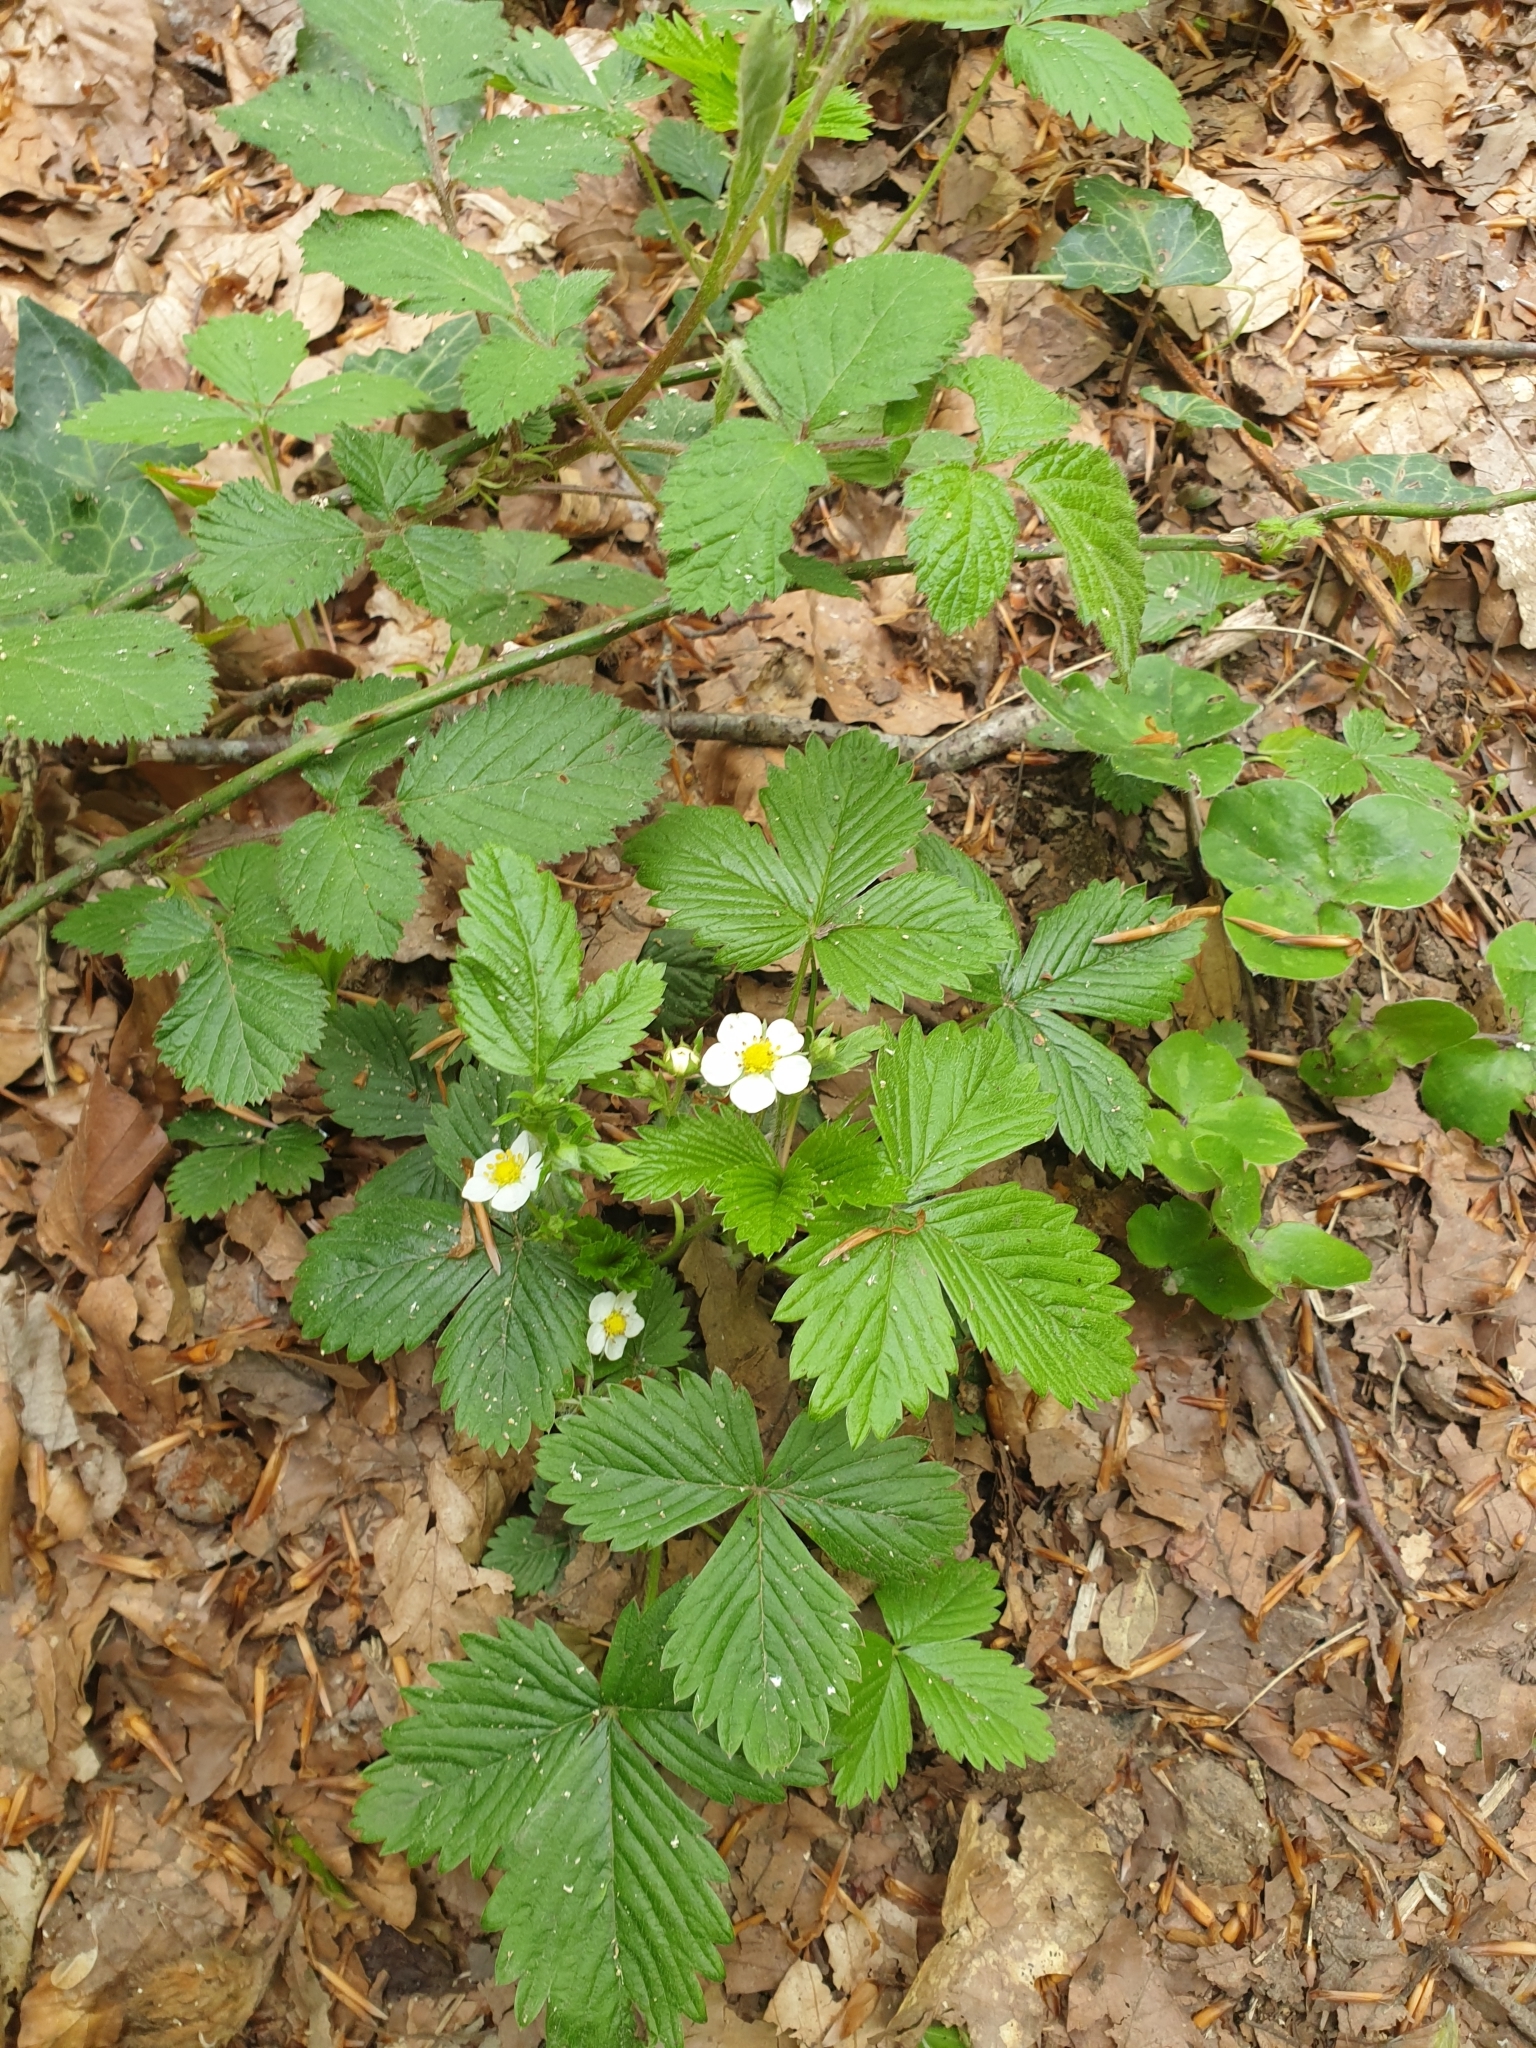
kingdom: Plantae
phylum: Tracheophyta
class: Magnoliopsida
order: Rosales
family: Rosaceae
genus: Fragaria
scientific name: Fragaria vesca
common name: Wild strawberry
